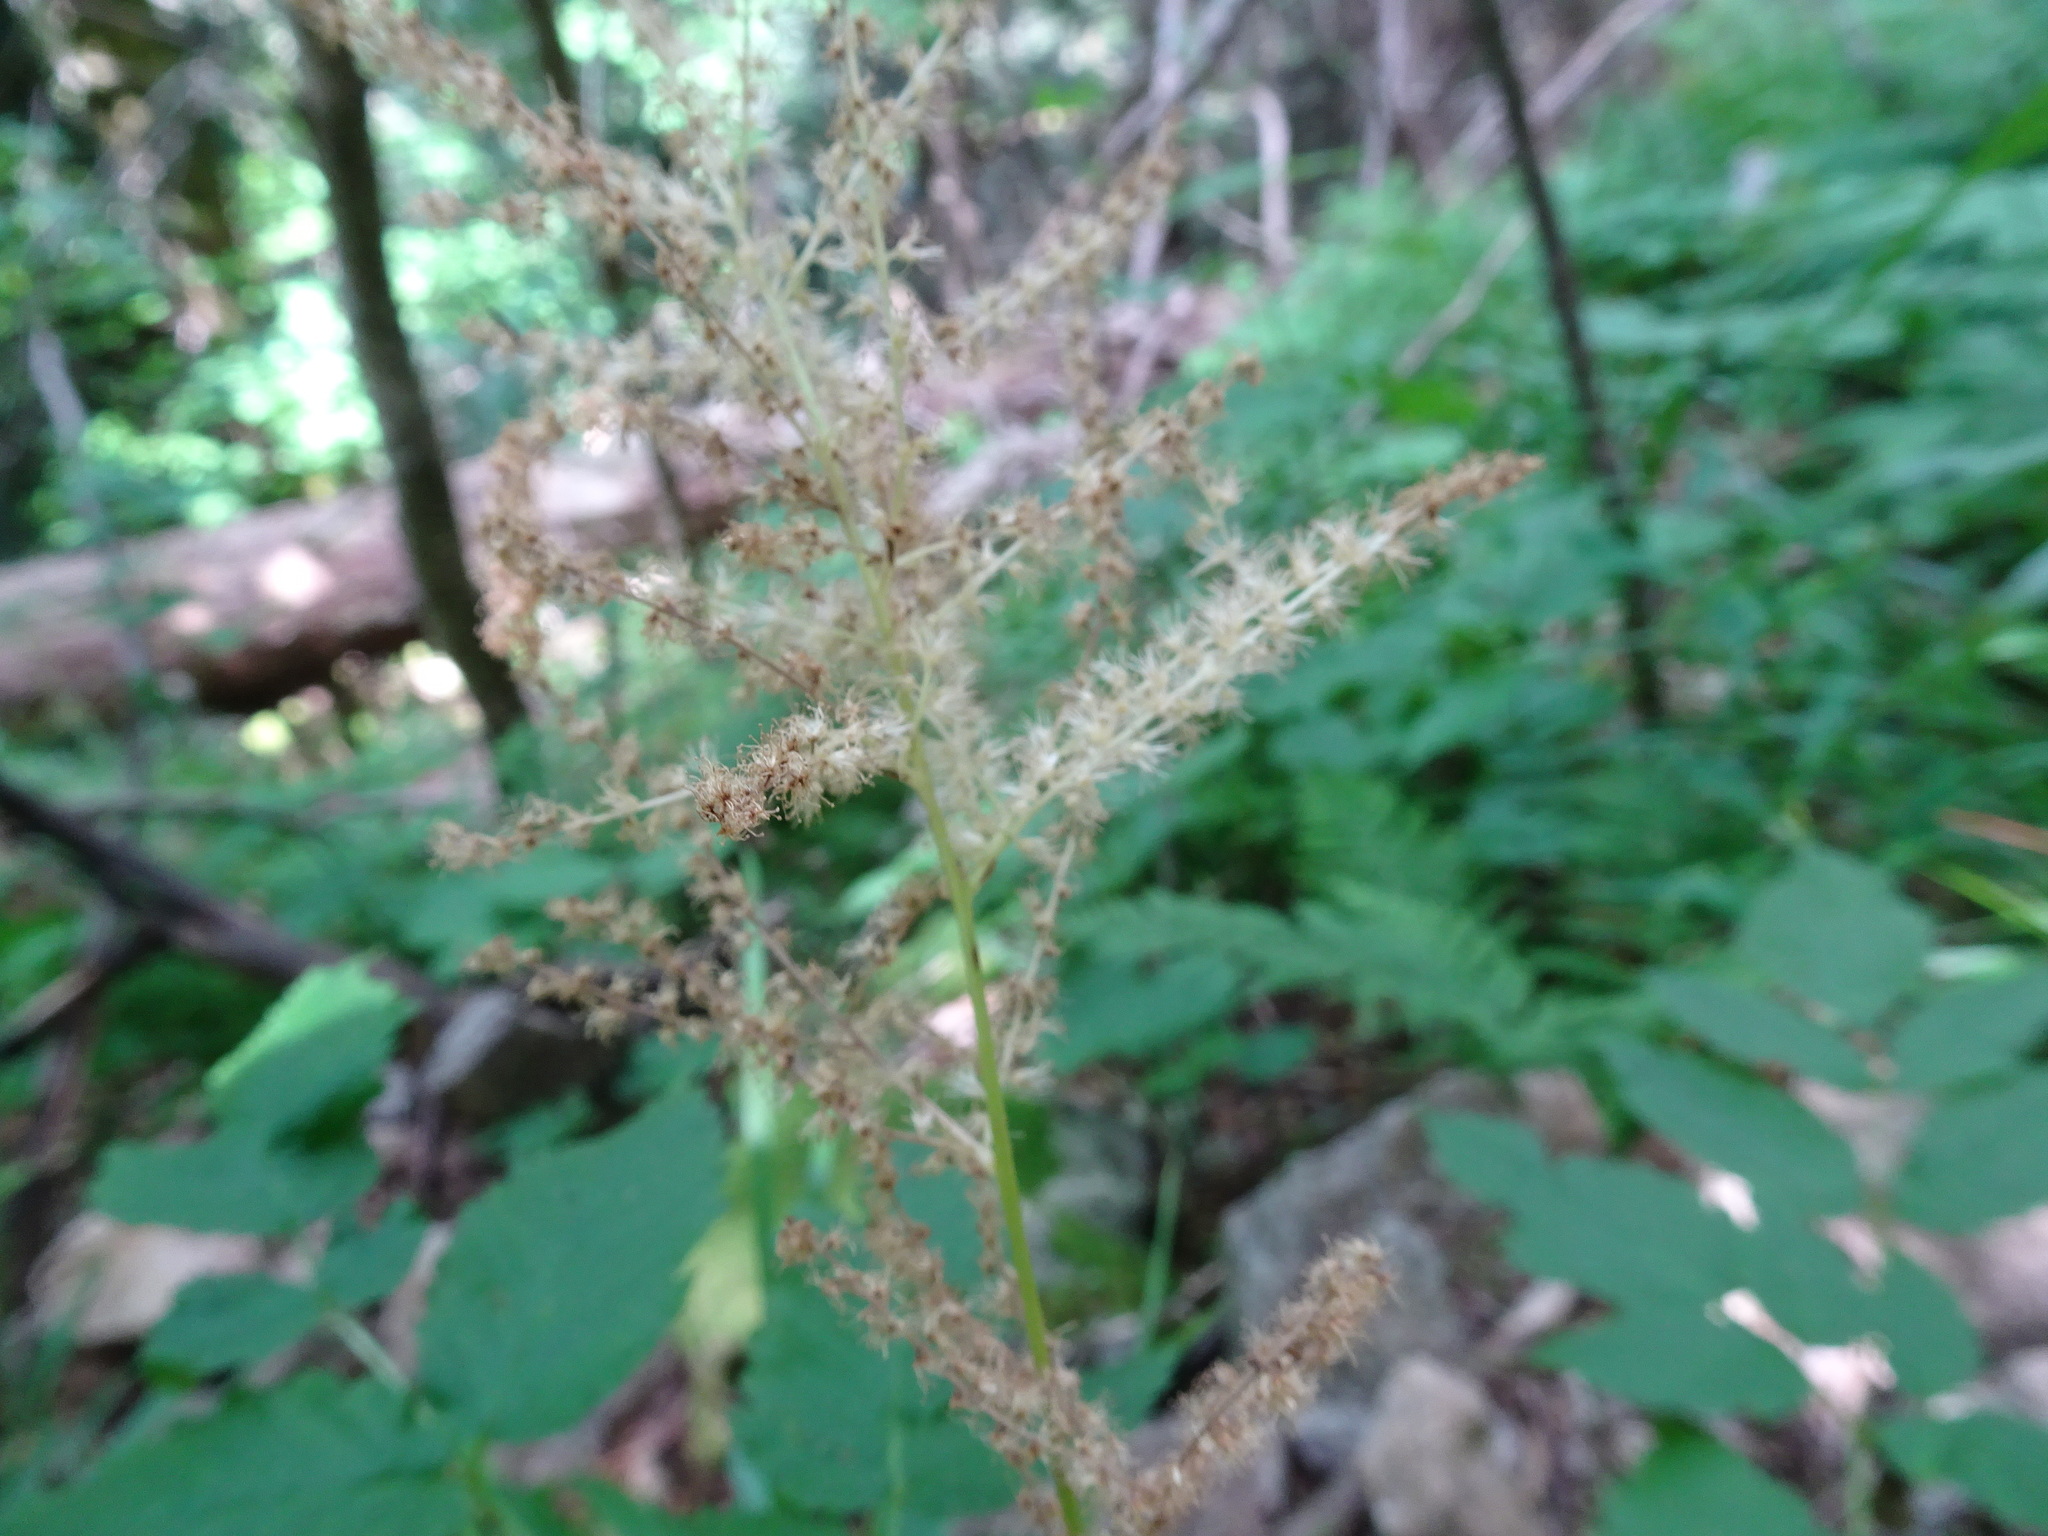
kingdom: Plantae
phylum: Tracheophyta
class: Magnoliopsida
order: Rosales
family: Rosaceae
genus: Aruncus
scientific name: Aruncus dioicus
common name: Buck's-beard
